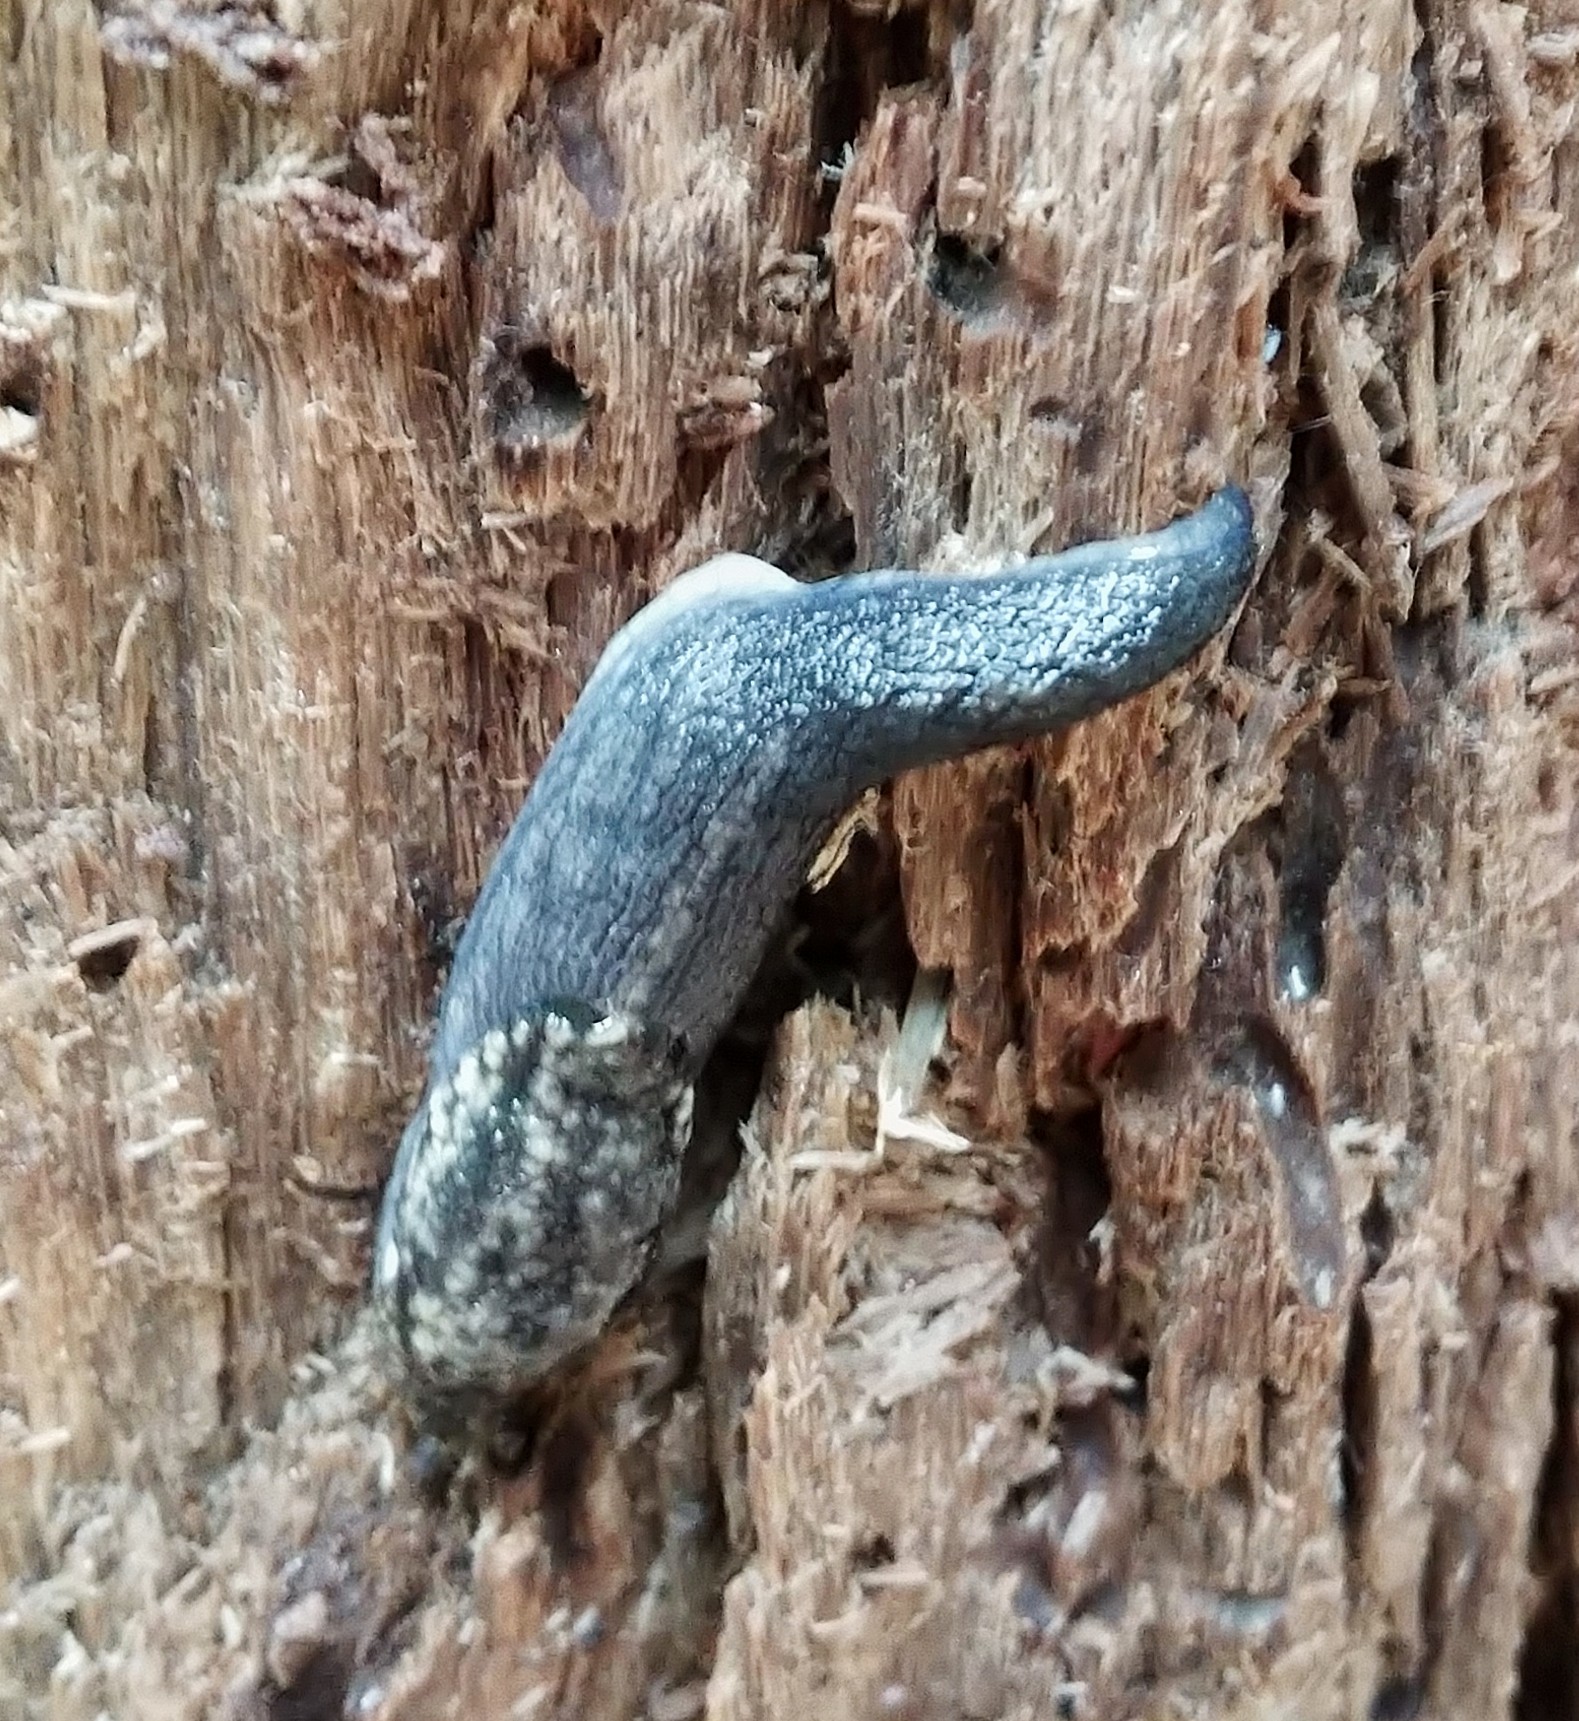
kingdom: Animalia
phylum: Mollusca
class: Gastropoda
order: Stylommatophora
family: Ariolimacidae
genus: Prophysaon
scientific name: Prophysaon andersonii
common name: Reticulate taildropper
